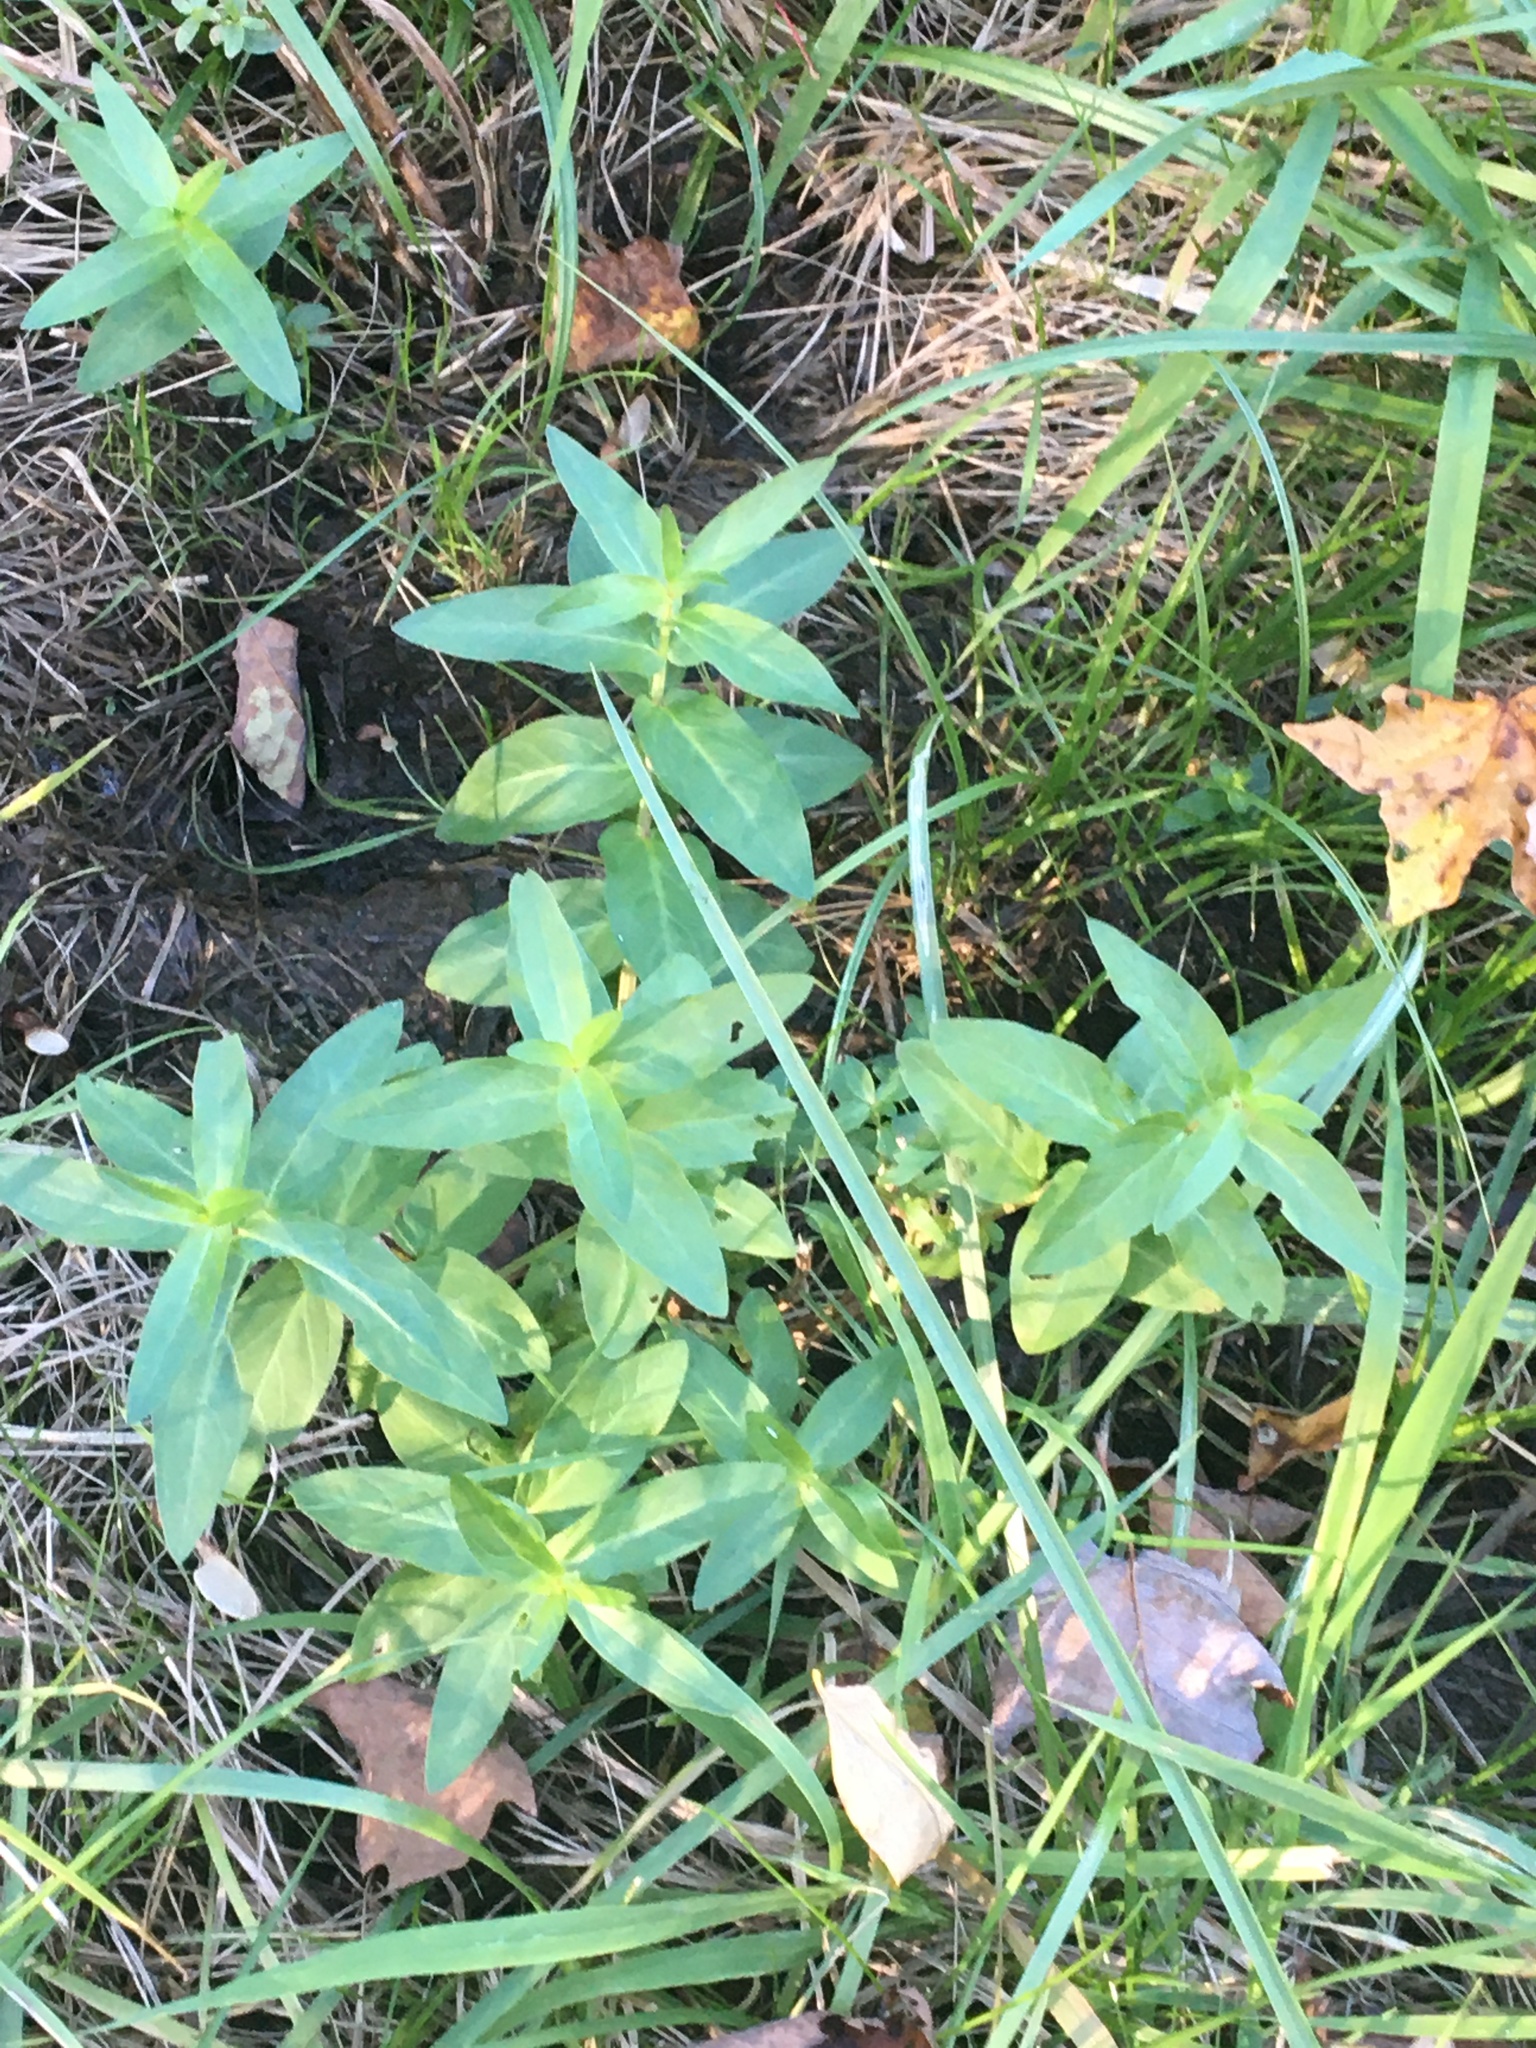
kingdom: Plantae
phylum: Tracheophyta
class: Magnoliopsida
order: Myrtales
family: Lythraceae
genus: Lythrum
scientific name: Lythrum salicaria
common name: Purple loosestrife
